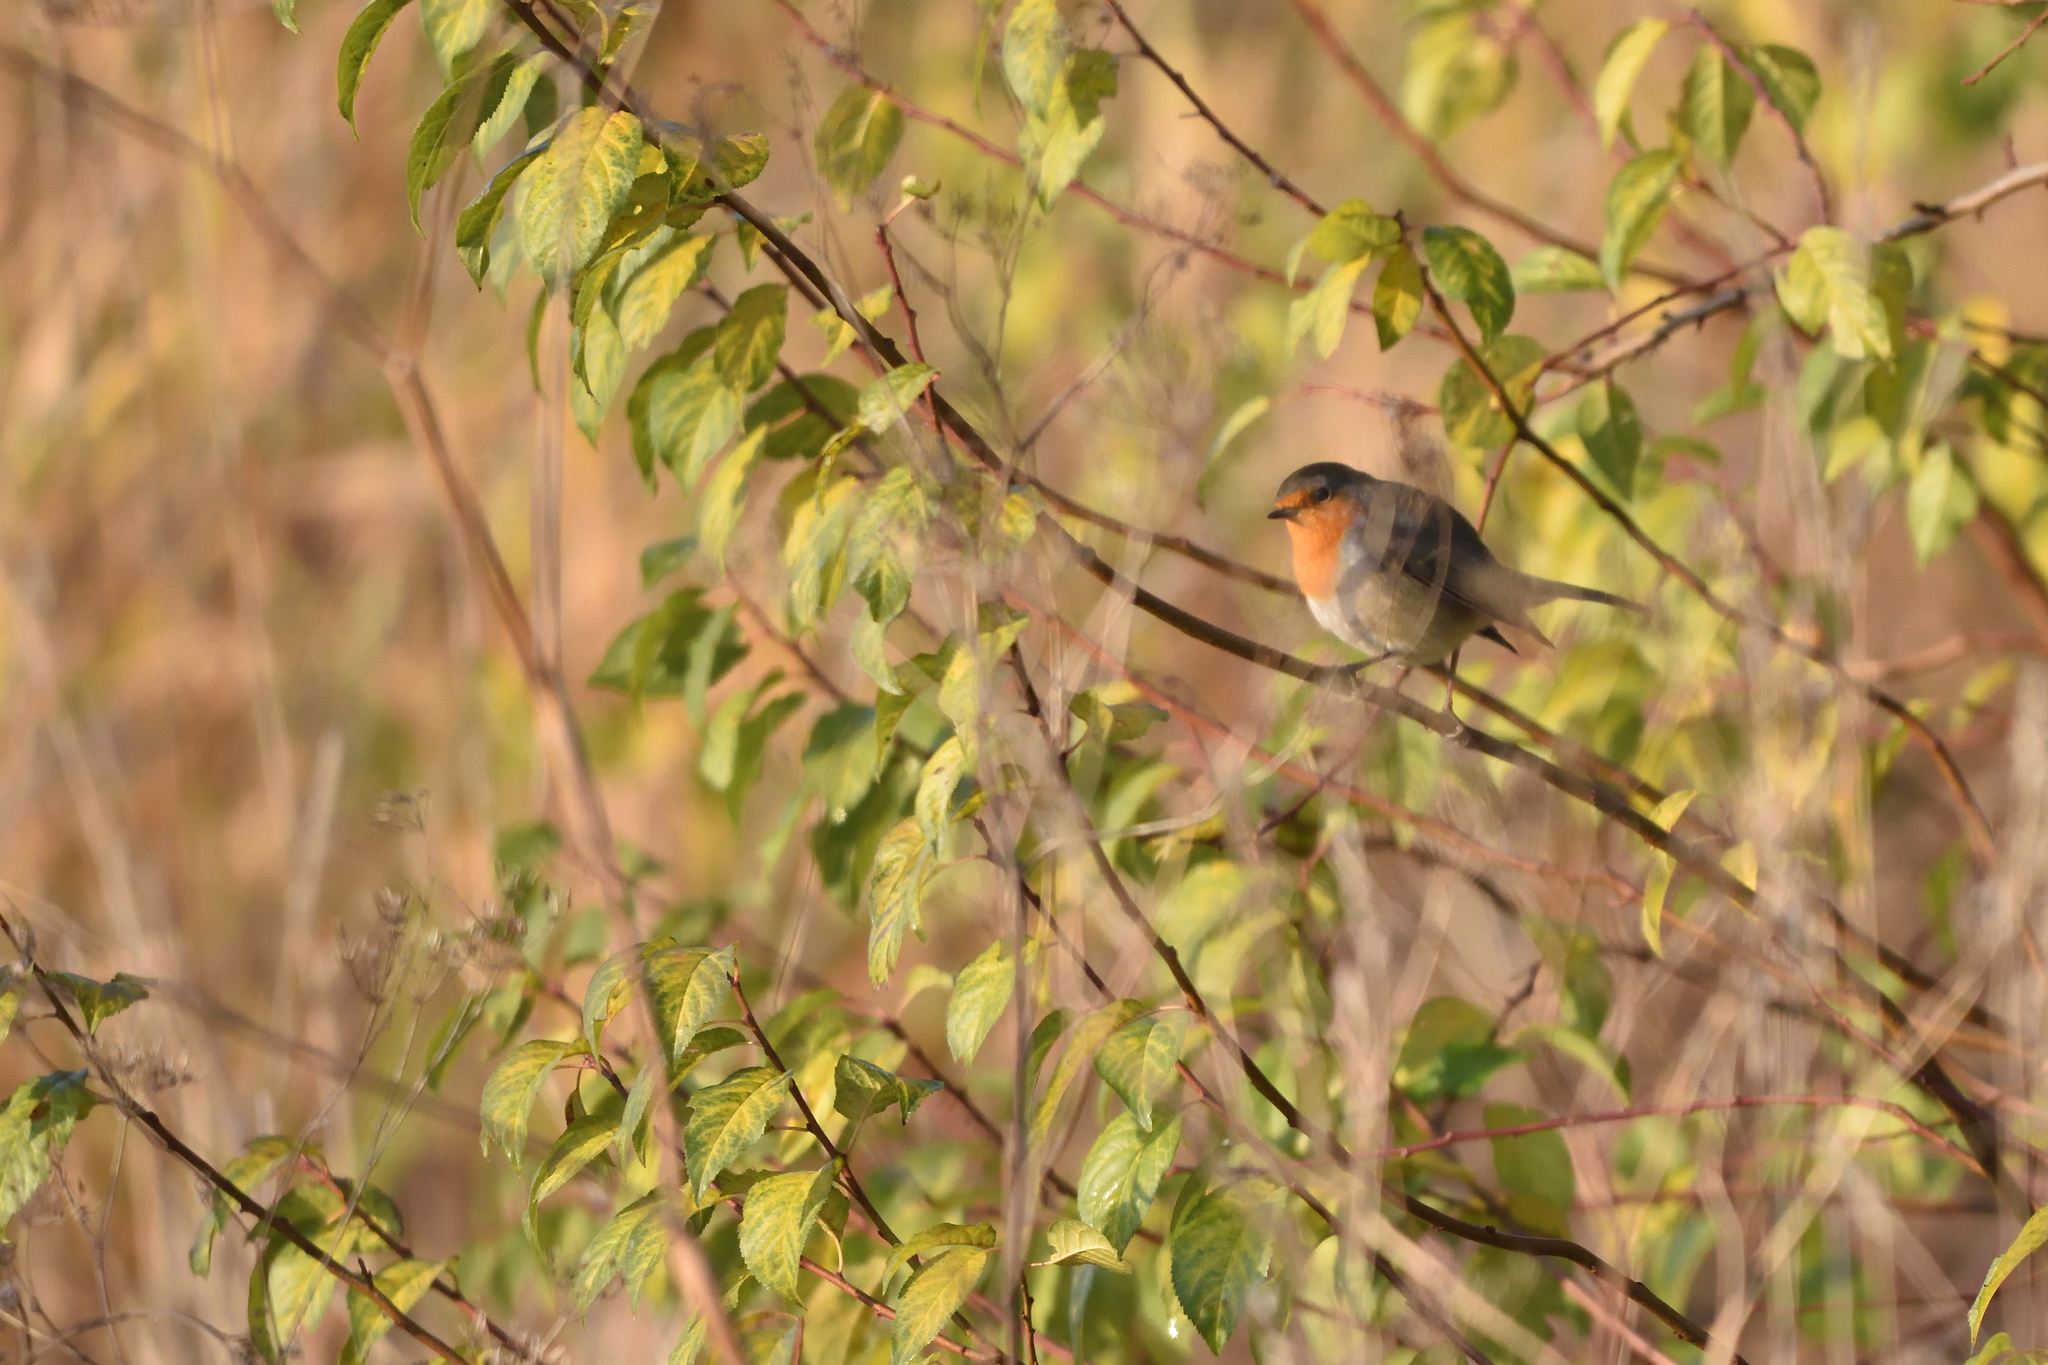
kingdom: Animalia
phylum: Chordata
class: Aves
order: Passeriformes
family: Muscicapidae
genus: Erithacus
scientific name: Erithacus rubecula
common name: European robin
